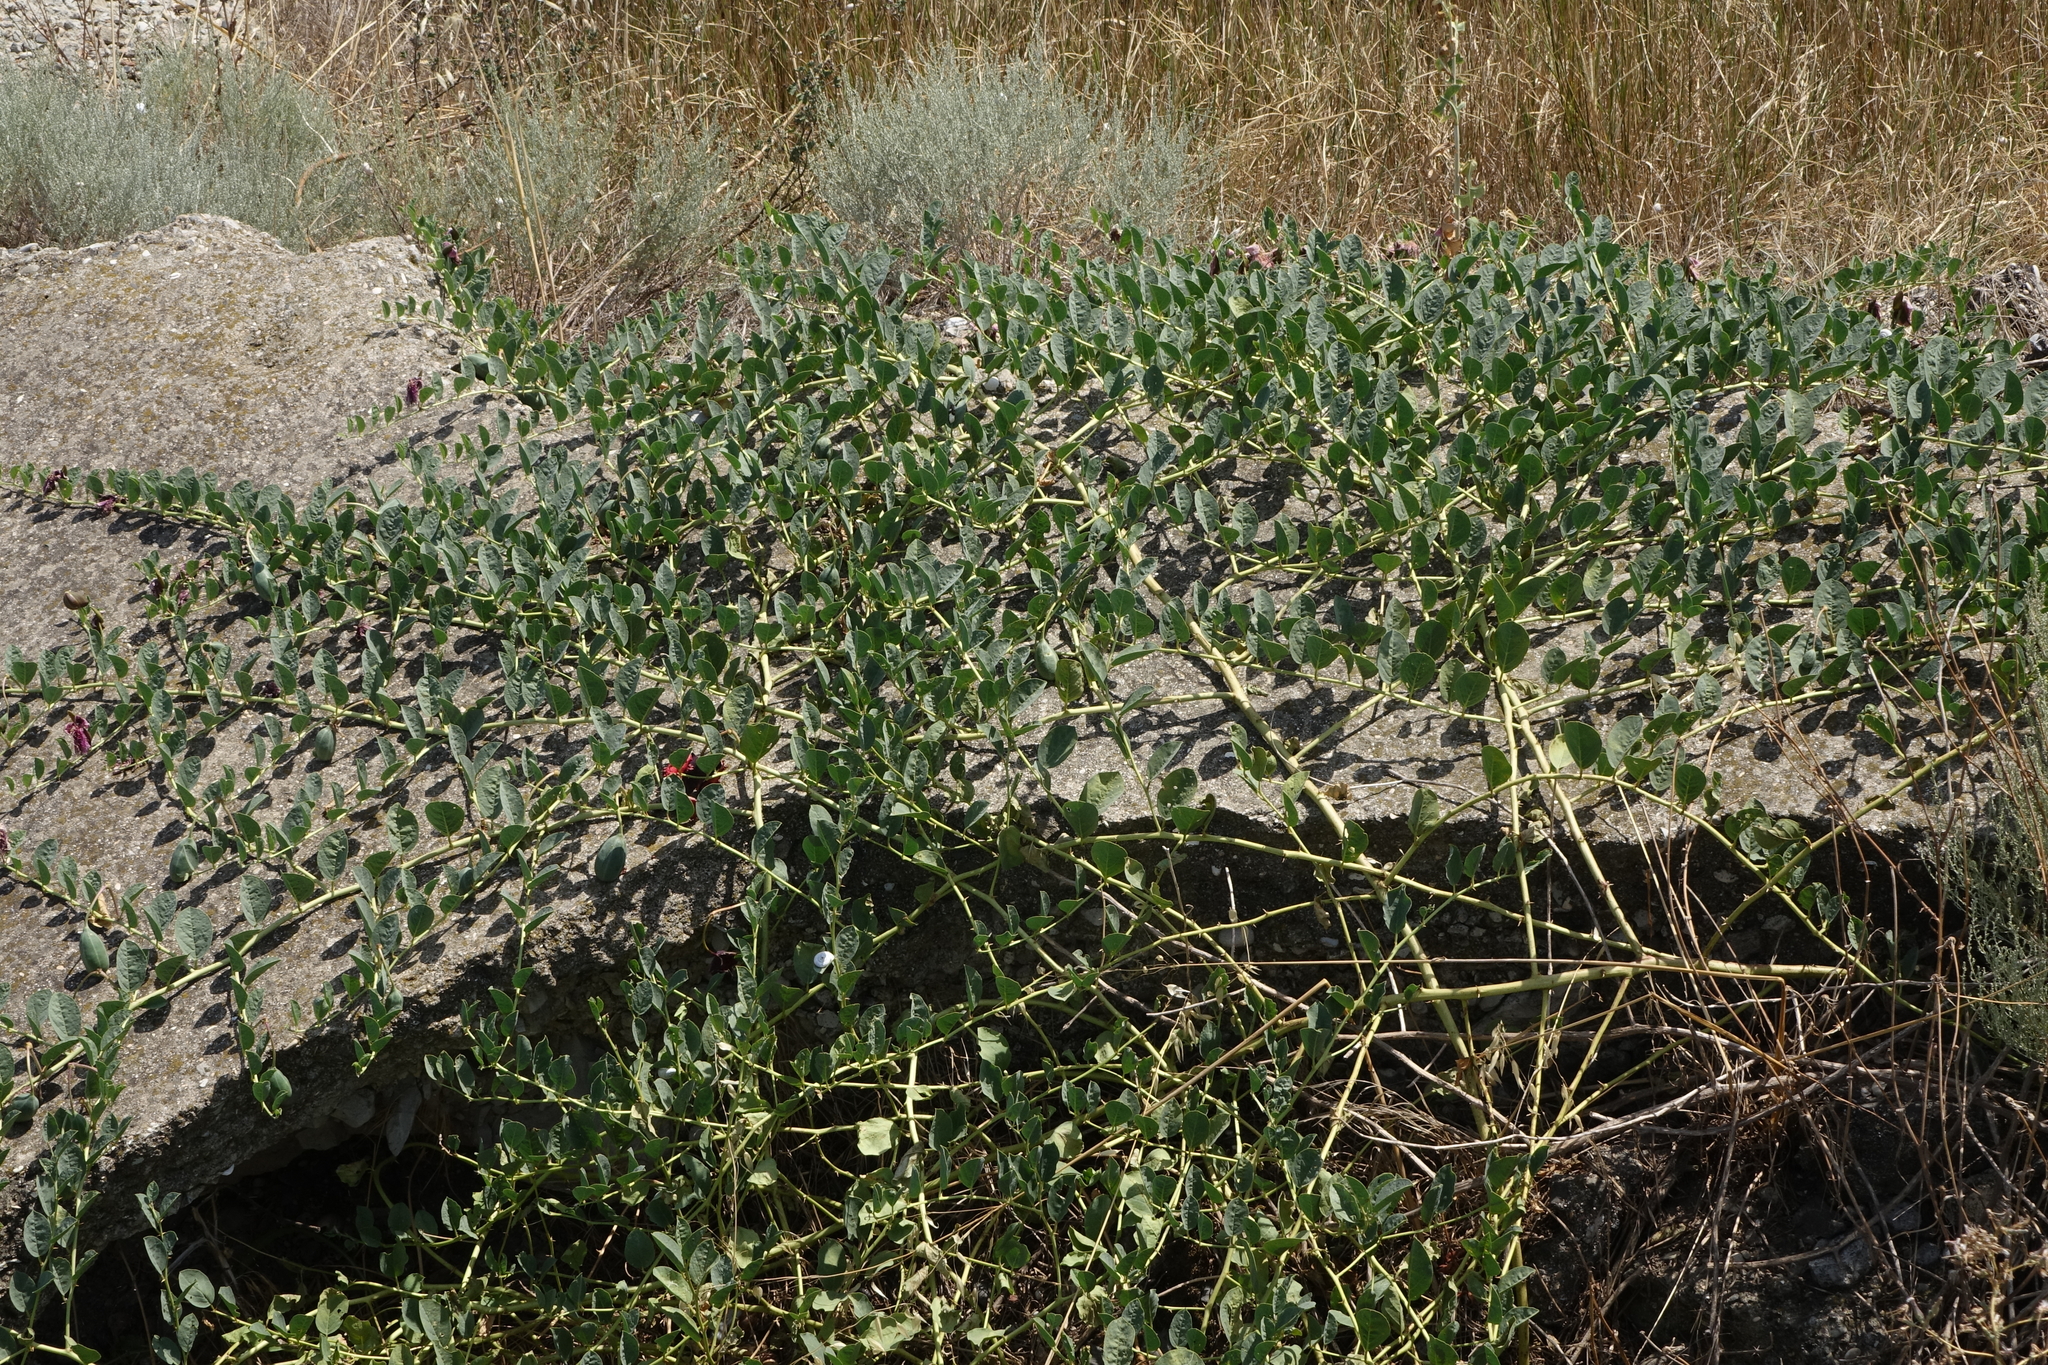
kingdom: Plantae
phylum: Tracheophyta
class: Magnoliopsida
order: Brassicales
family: Capparaceae
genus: Capparis
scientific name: Capparis spinosa
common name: Caper
